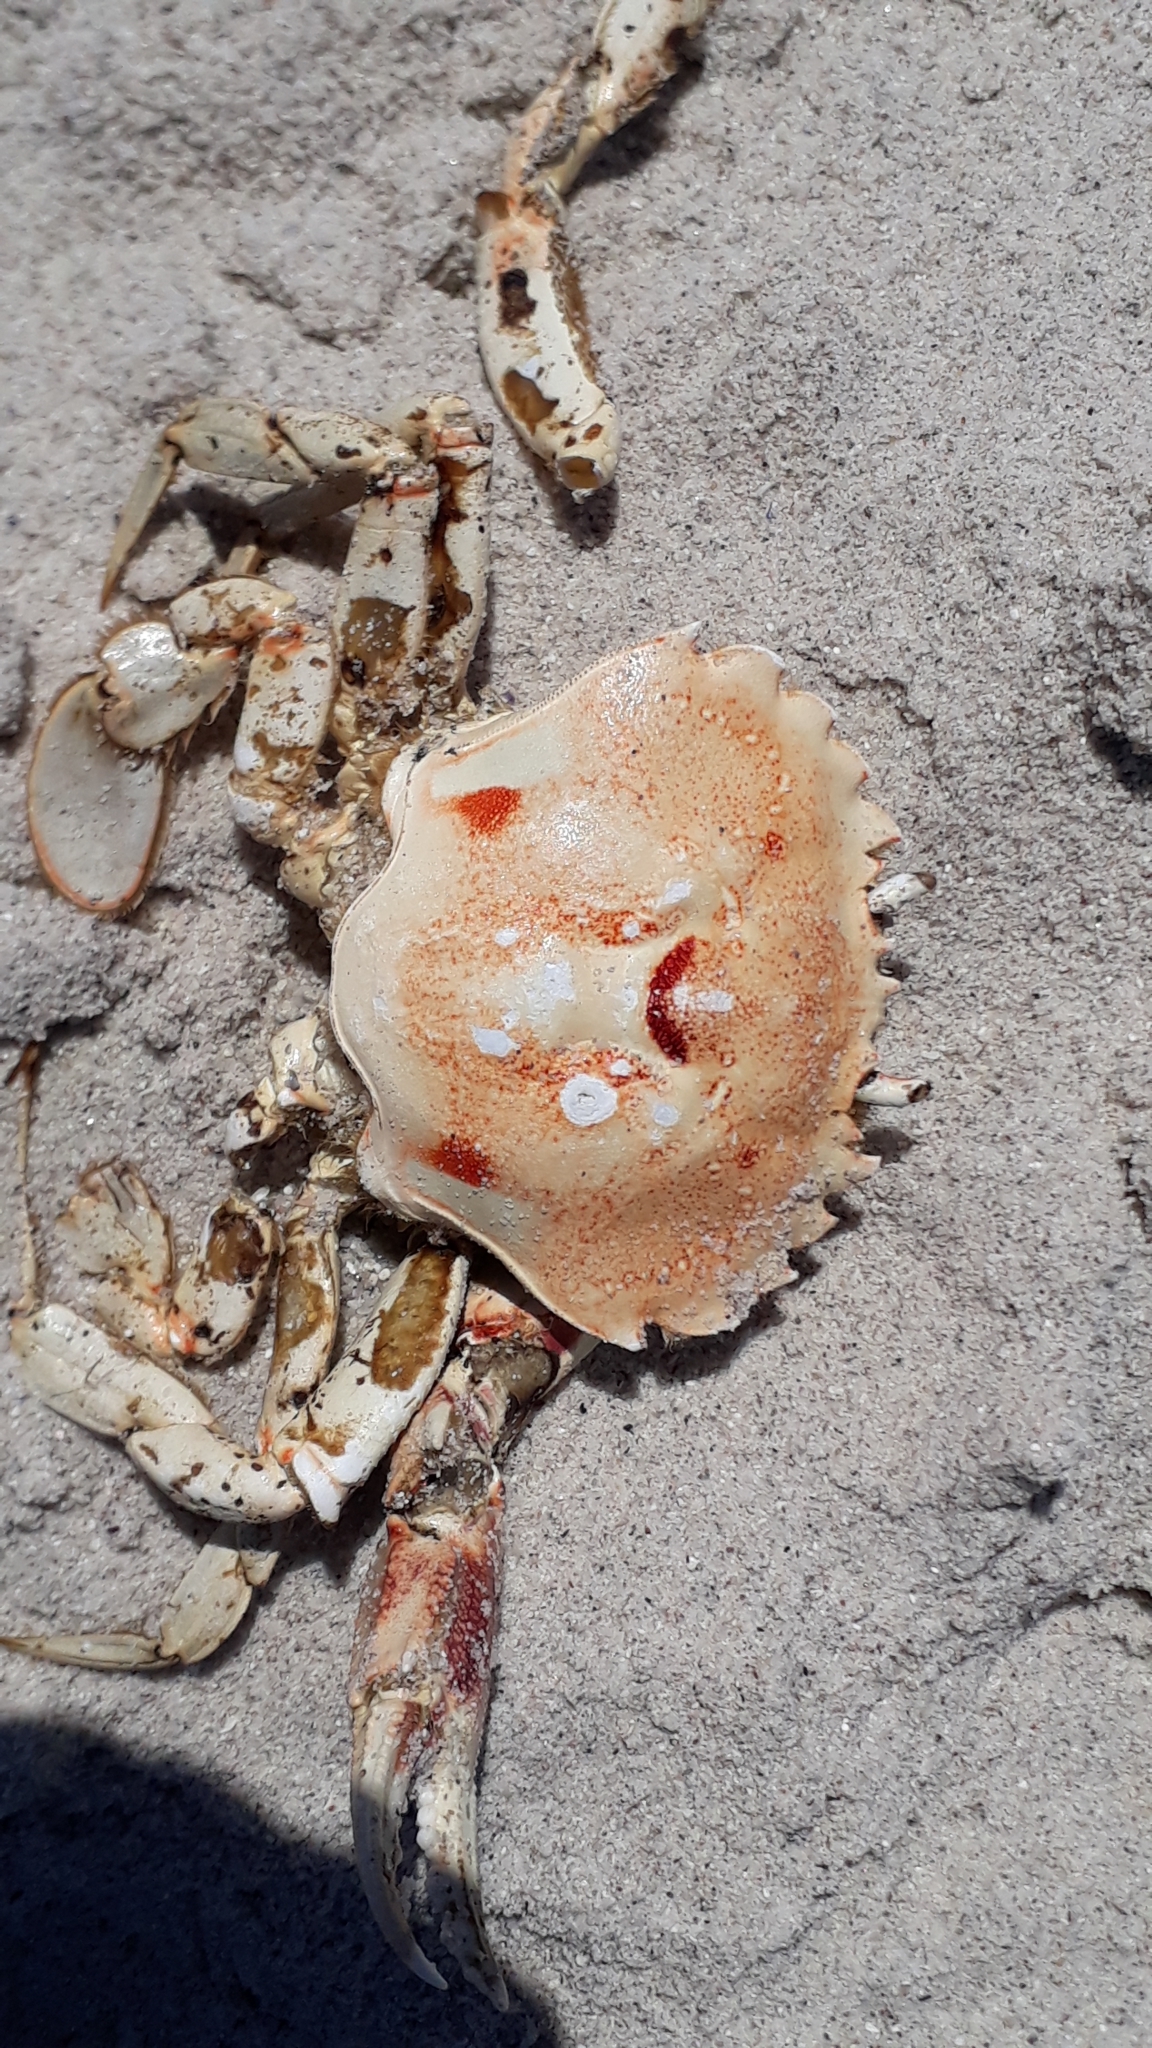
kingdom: Animalia
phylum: Arthropoda
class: Malacostraca
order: Decapoda
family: Ovalipidae
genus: Ovalipes
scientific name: Ovalipes trimaculatus
